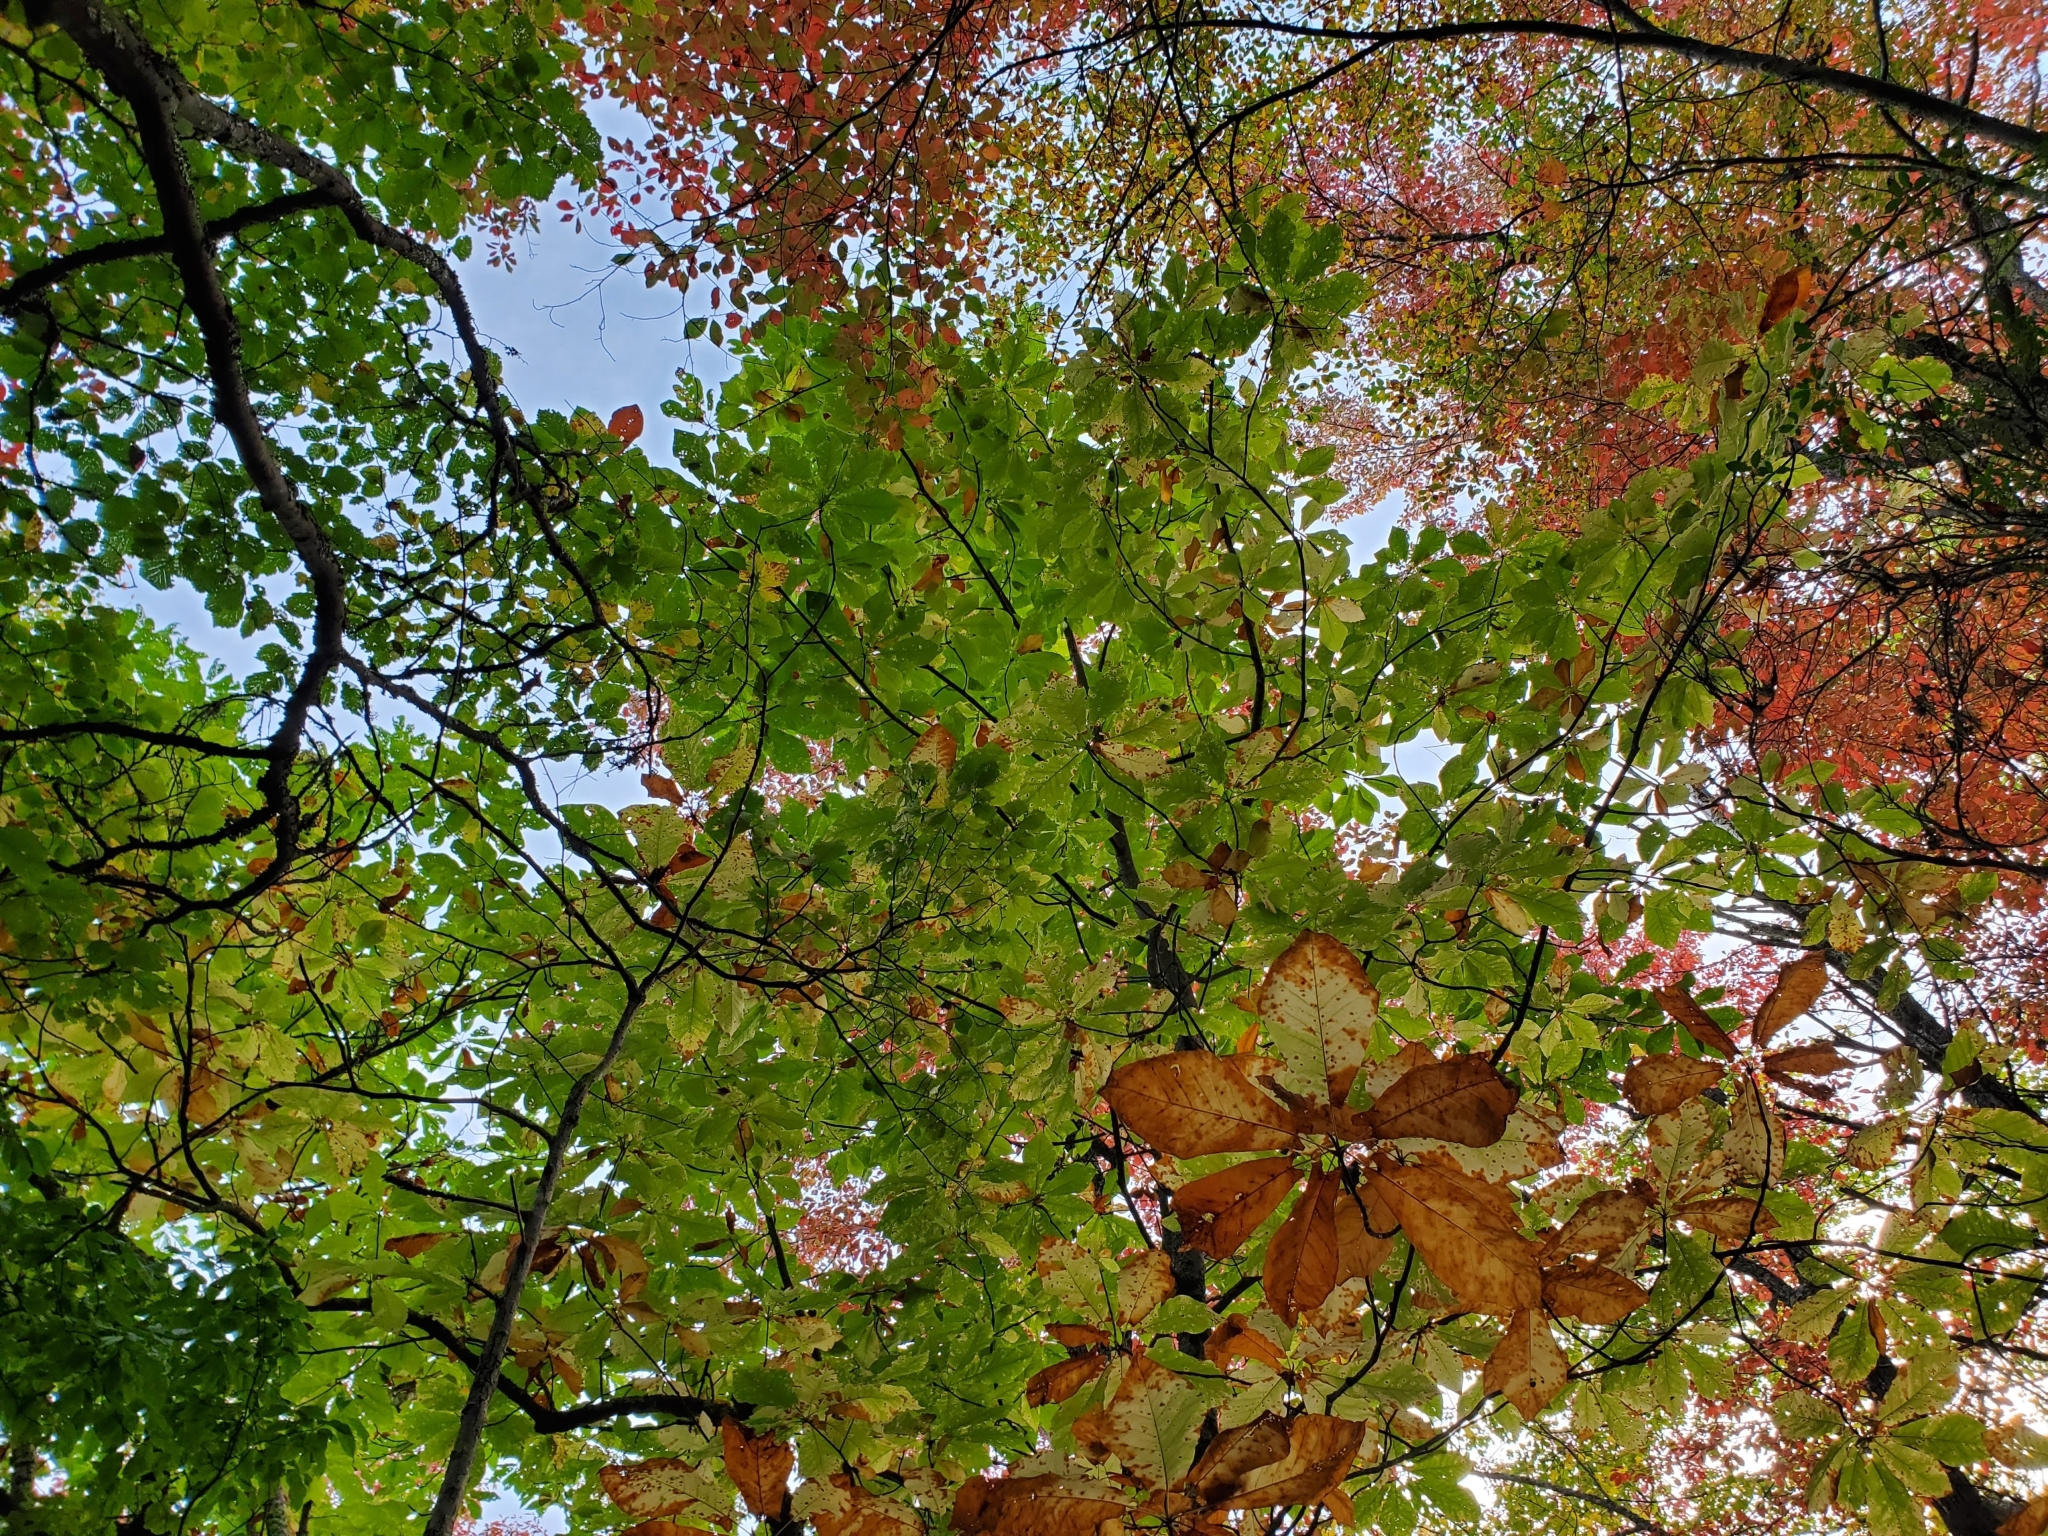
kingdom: Plantae
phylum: Tracheophyta
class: Magnoliopsida
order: Magnoliales
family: Magnoliaceae
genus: Magnolia
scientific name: Magnolia fraseri
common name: Fraser's magnolia
